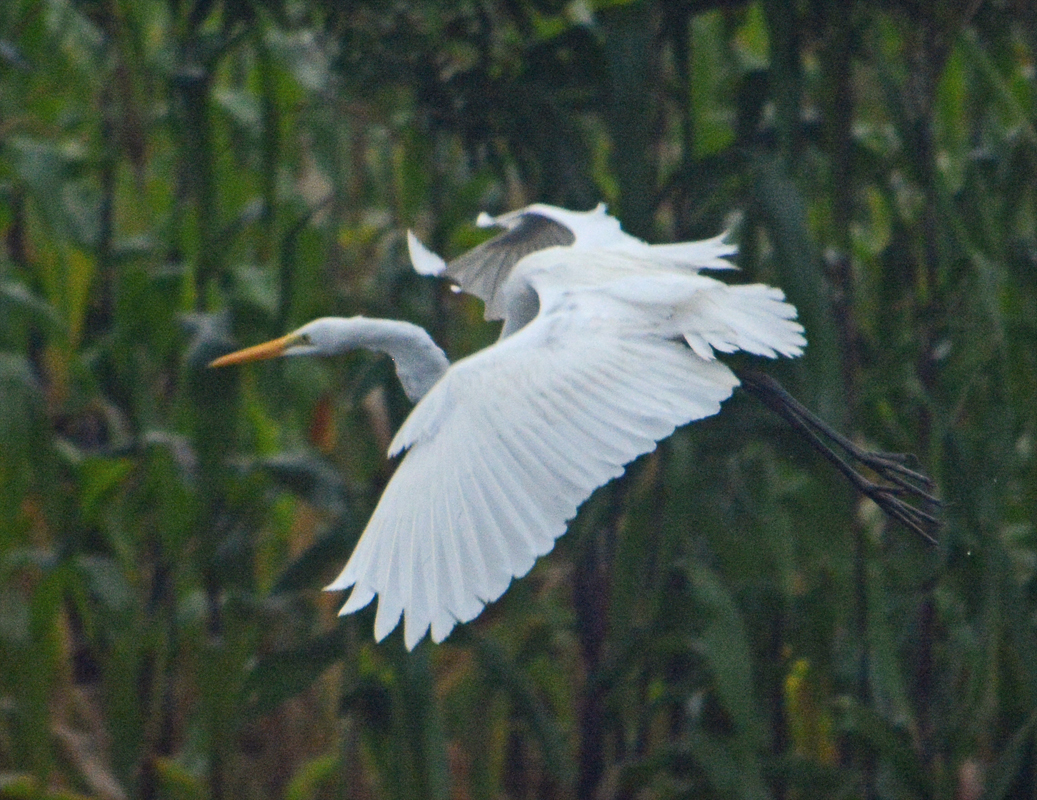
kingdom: Animalia
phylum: Chordata
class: Aves
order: Pelecaniformes
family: Ardeidae
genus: Ardea
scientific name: Ardea alba
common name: Great egret
